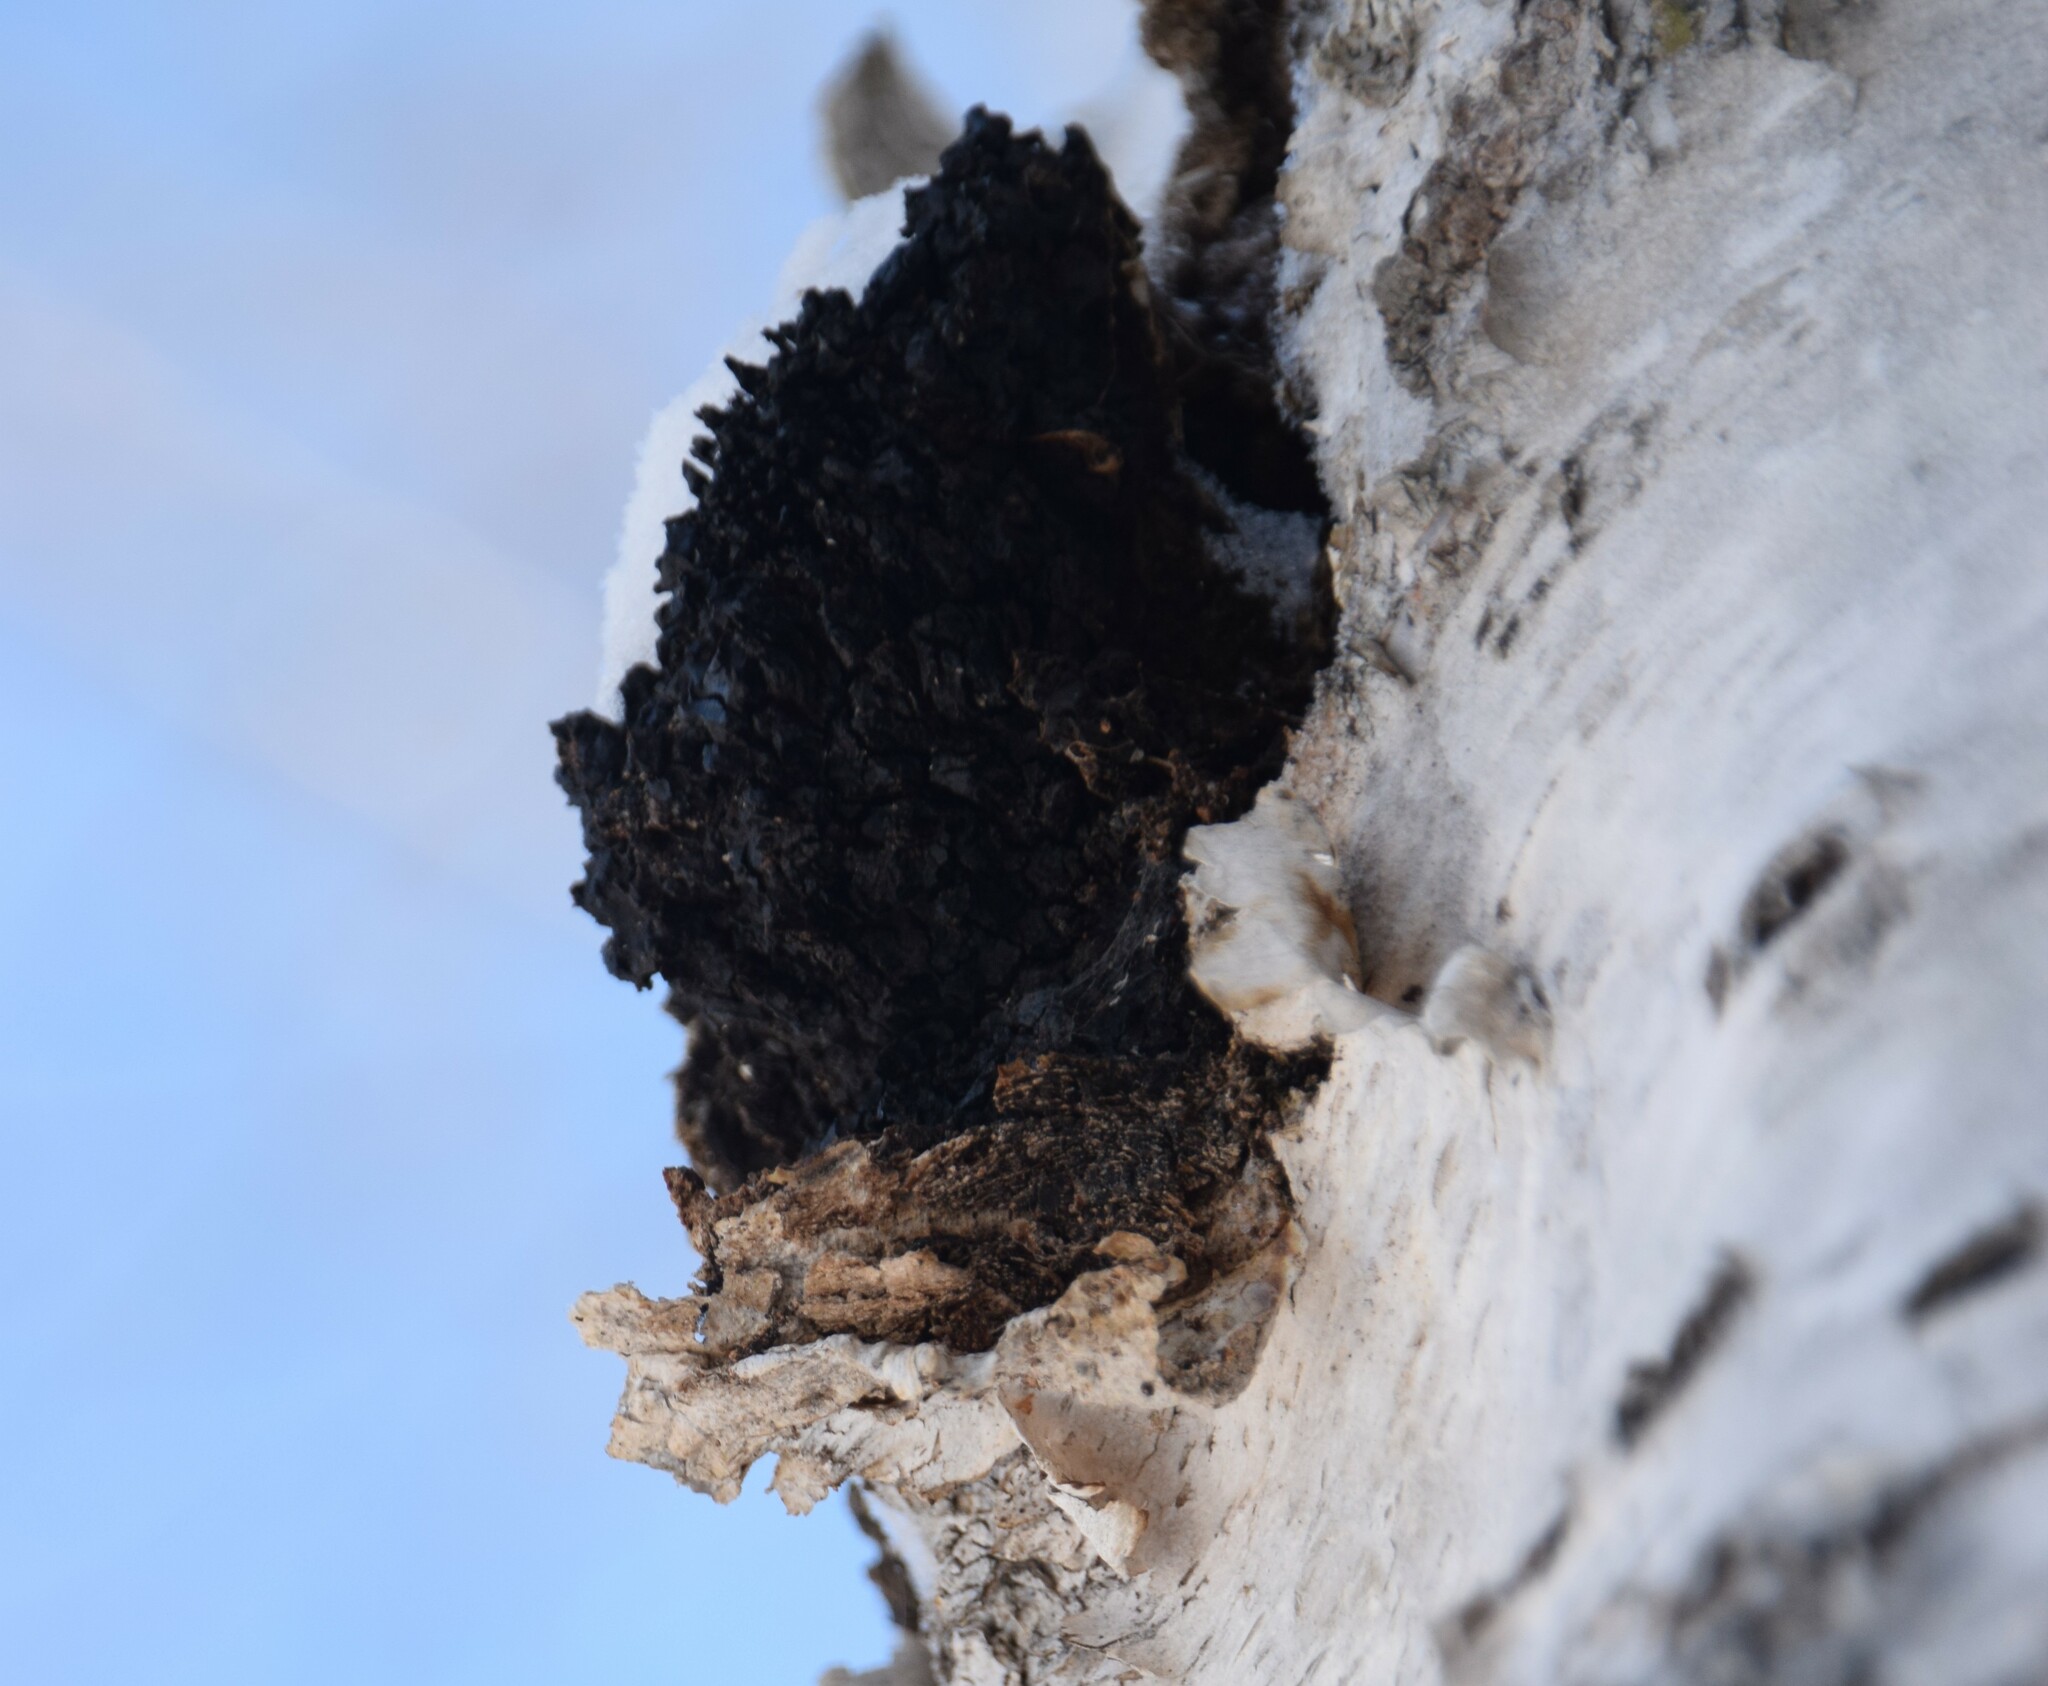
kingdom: Fungi
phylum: Basidiomycota
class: Agaricomycetes
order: Hymenochaetales
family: Hymenochaetaceae
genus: Inonotus
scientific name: Inonotus obliquus
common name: Chaga
